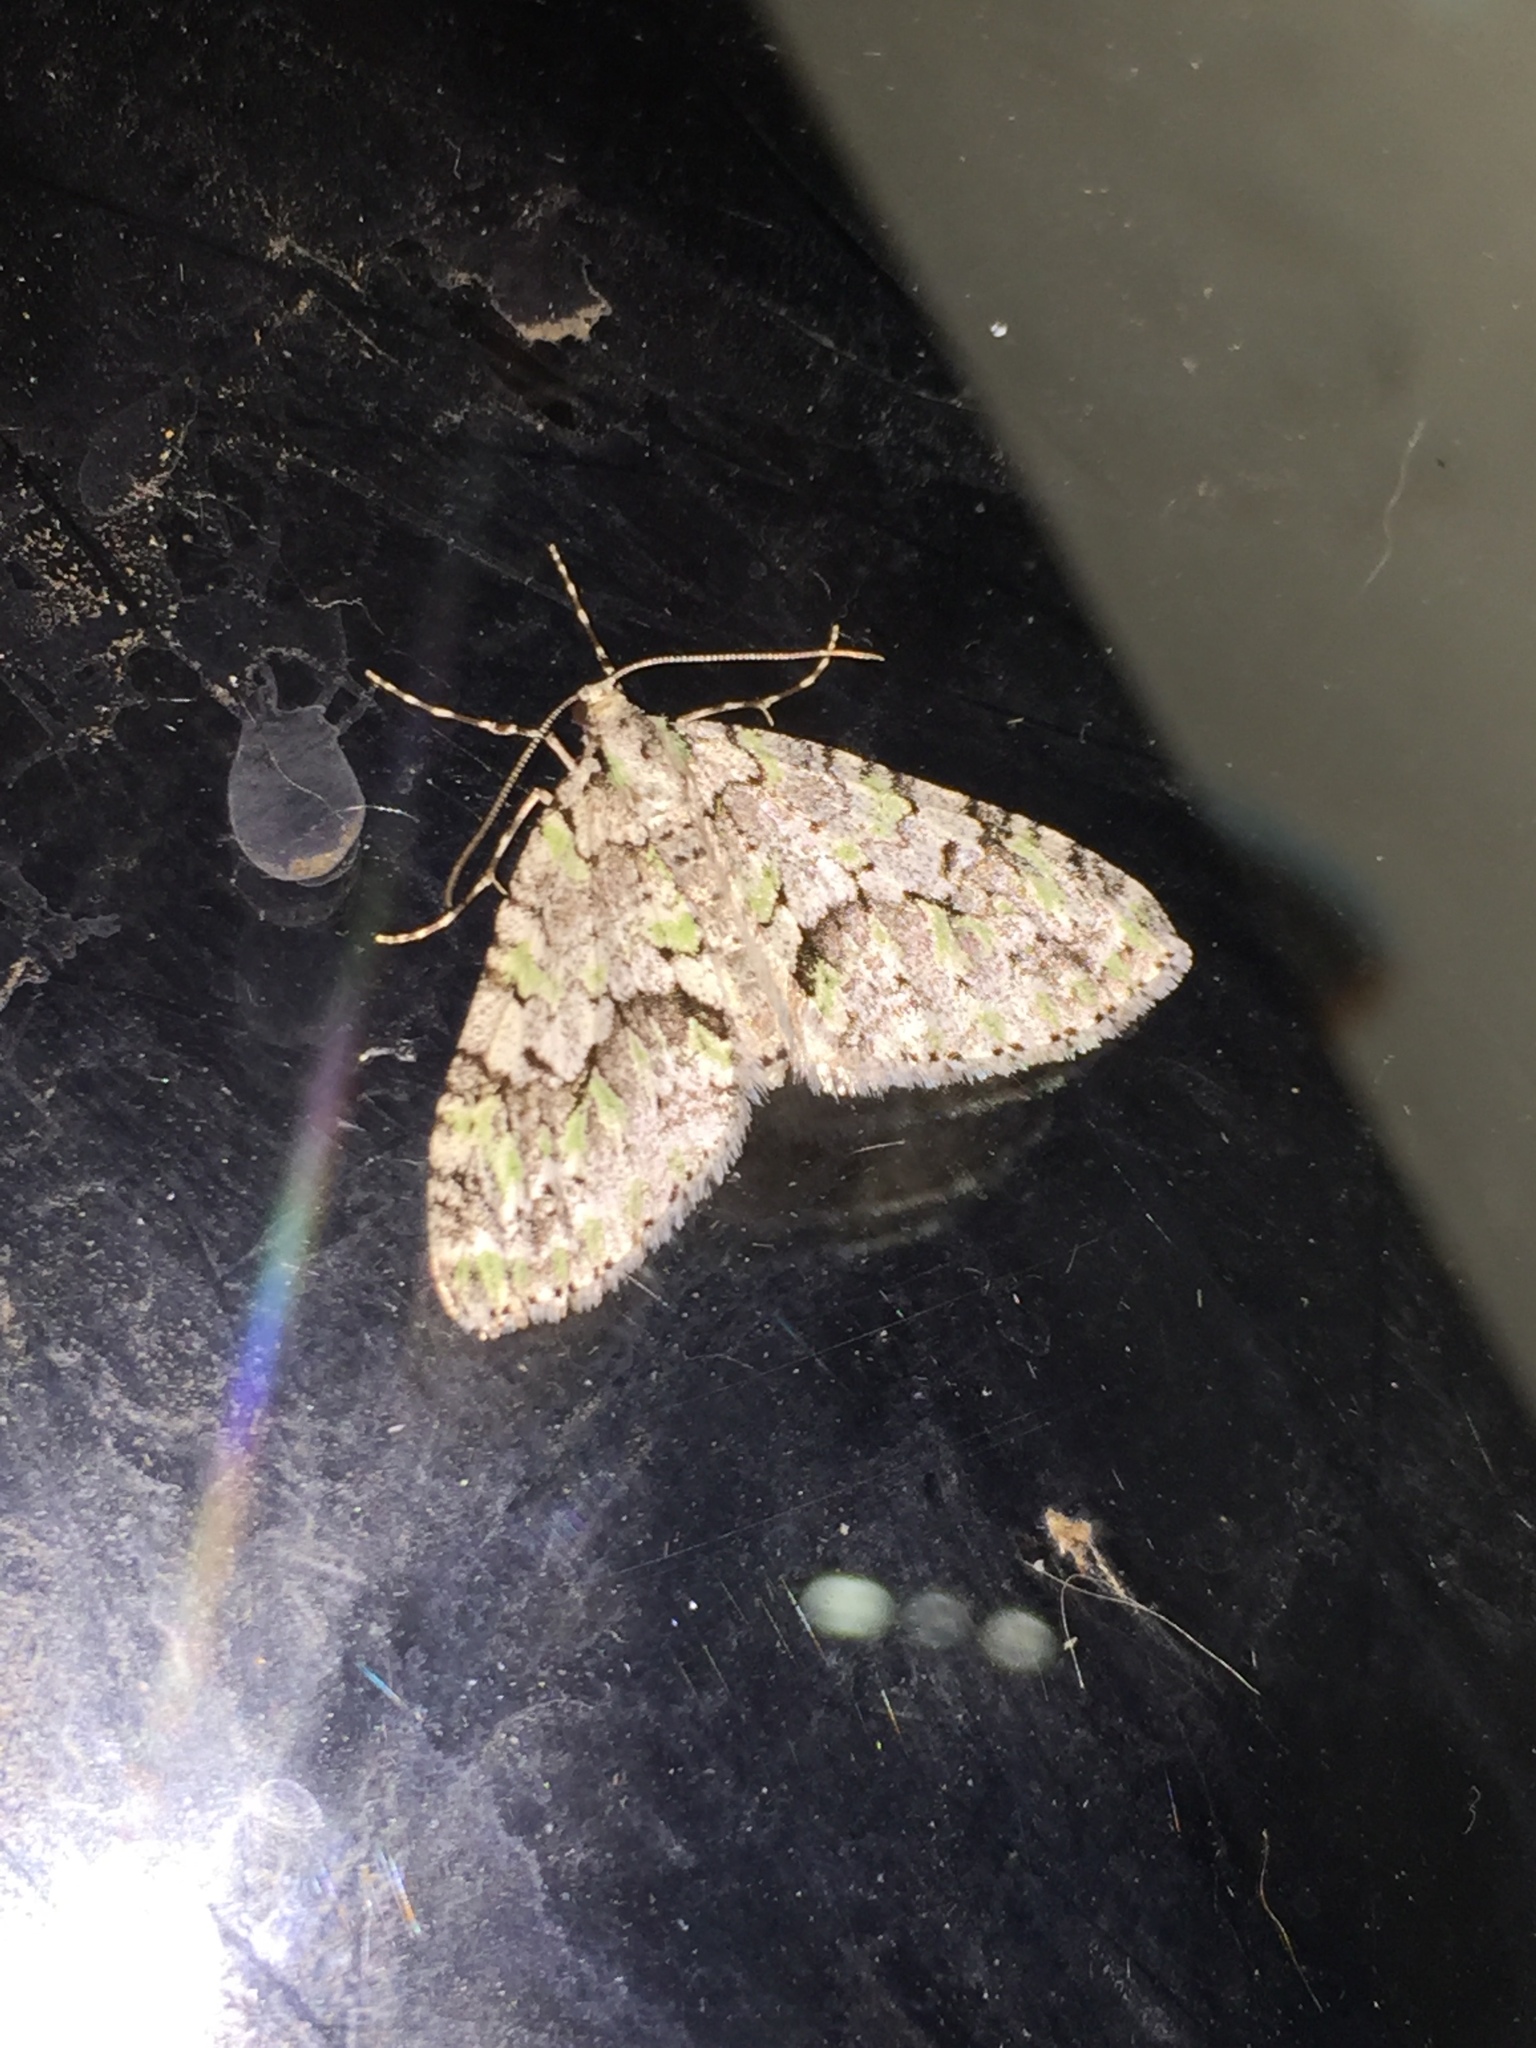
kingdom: Animalia
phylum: Arthropoda
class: Insecta
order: Lepidoptera
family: Geometridae
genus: Cladara
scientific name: Cladara limitaria
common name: Mottled gray carpet
